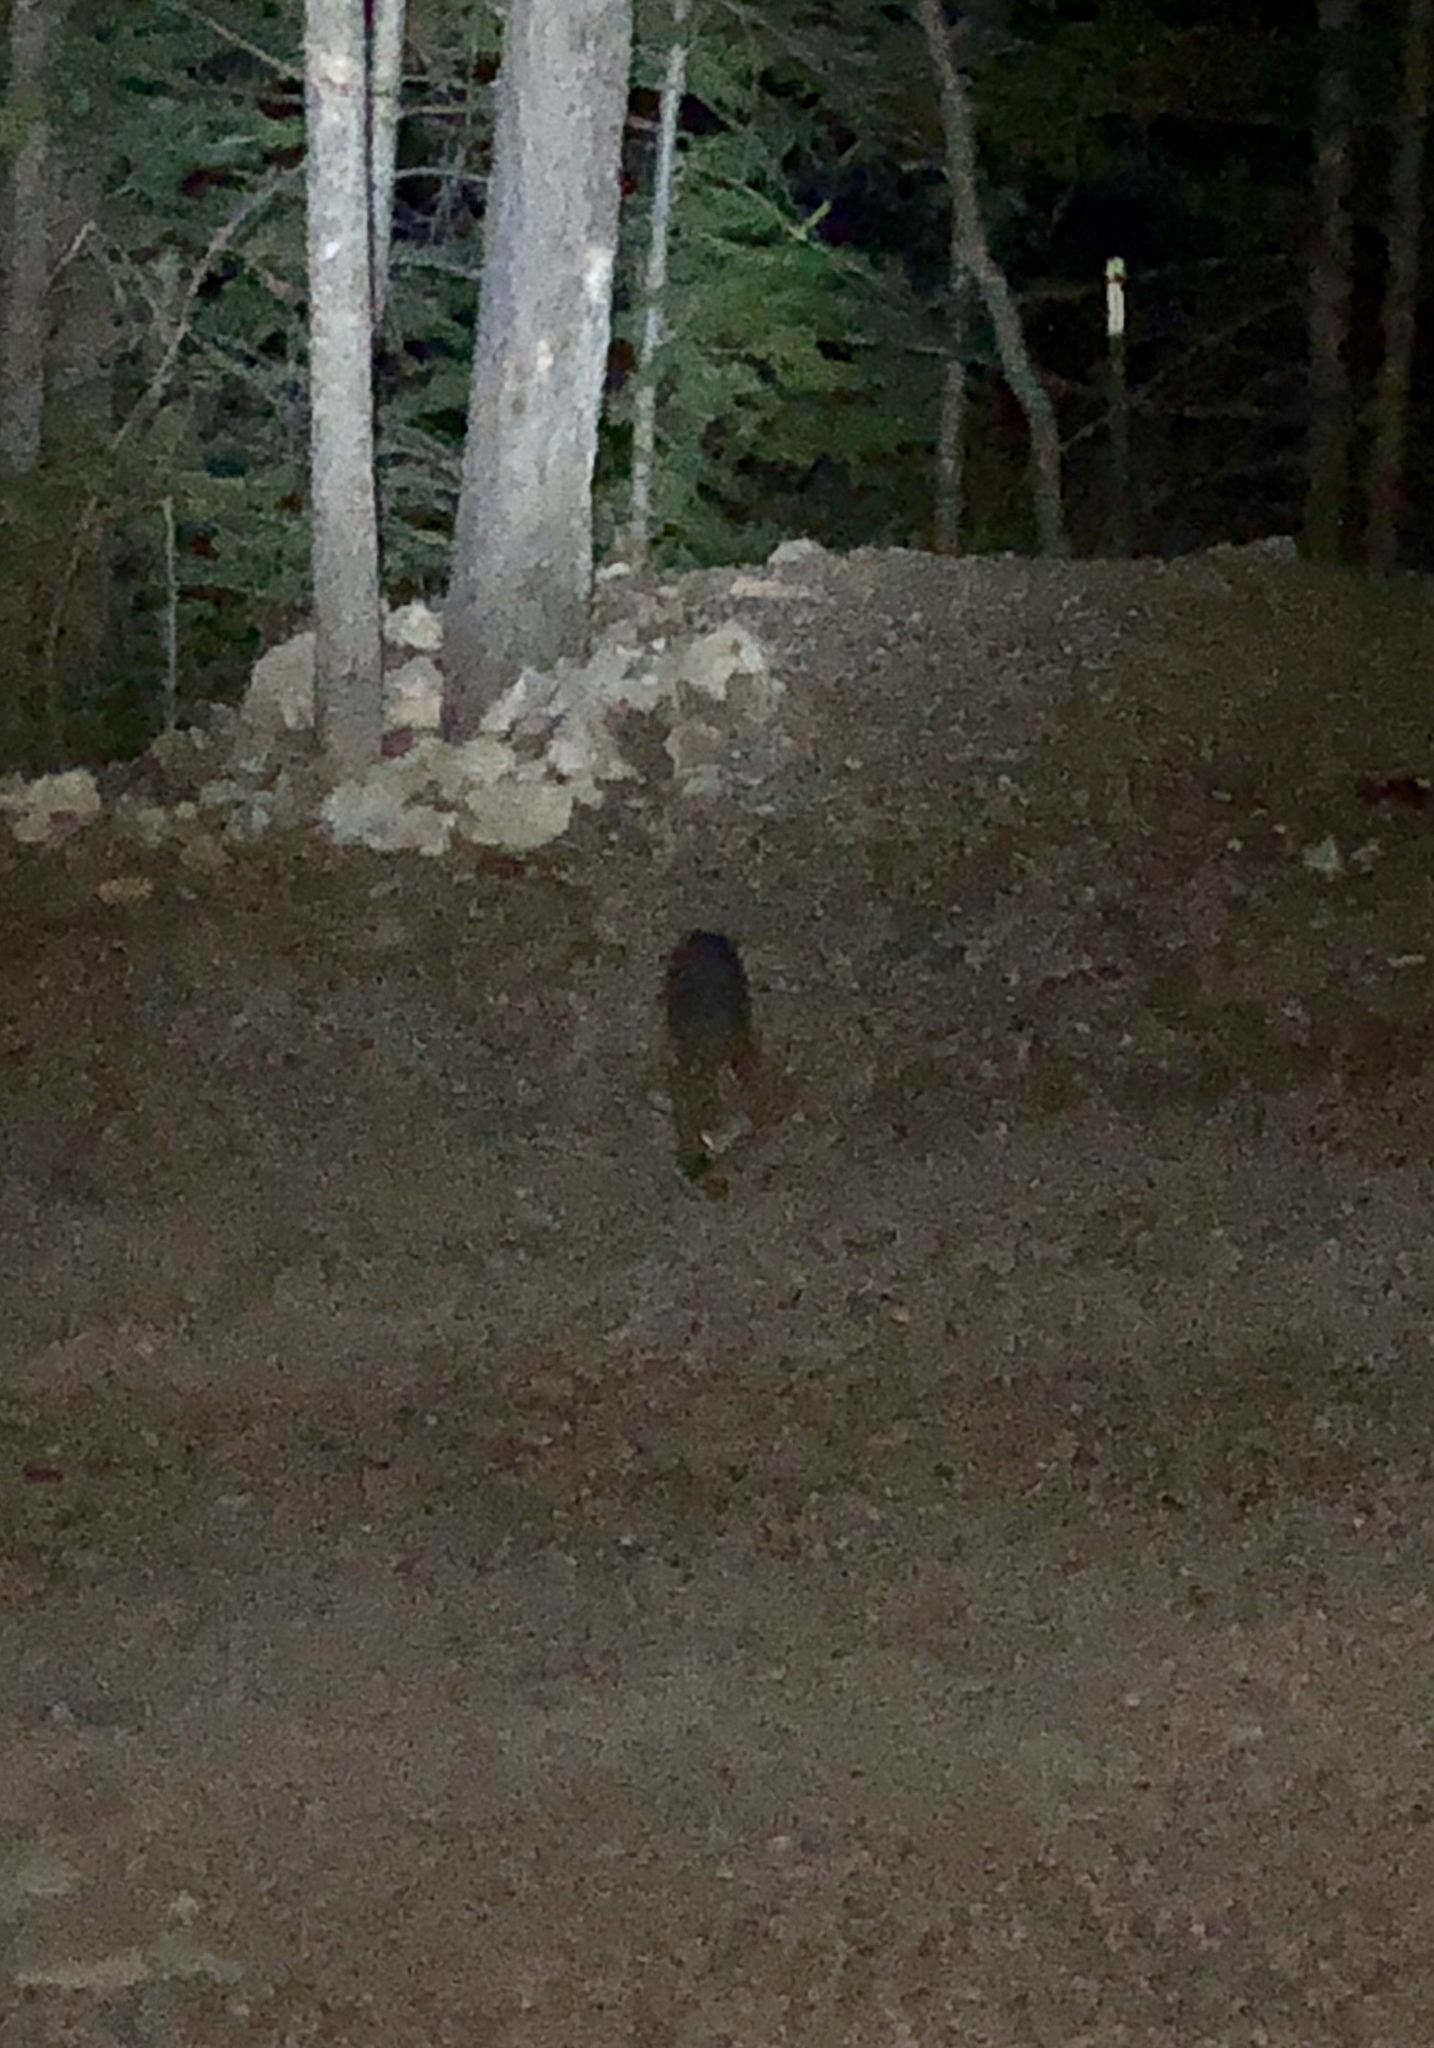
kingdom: Animalia
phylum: Chordata
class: Mammalia
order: Carnivora
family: Canidae
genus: Urocyon
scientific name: Urocyon cinereoargenteus
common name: Gray fox
